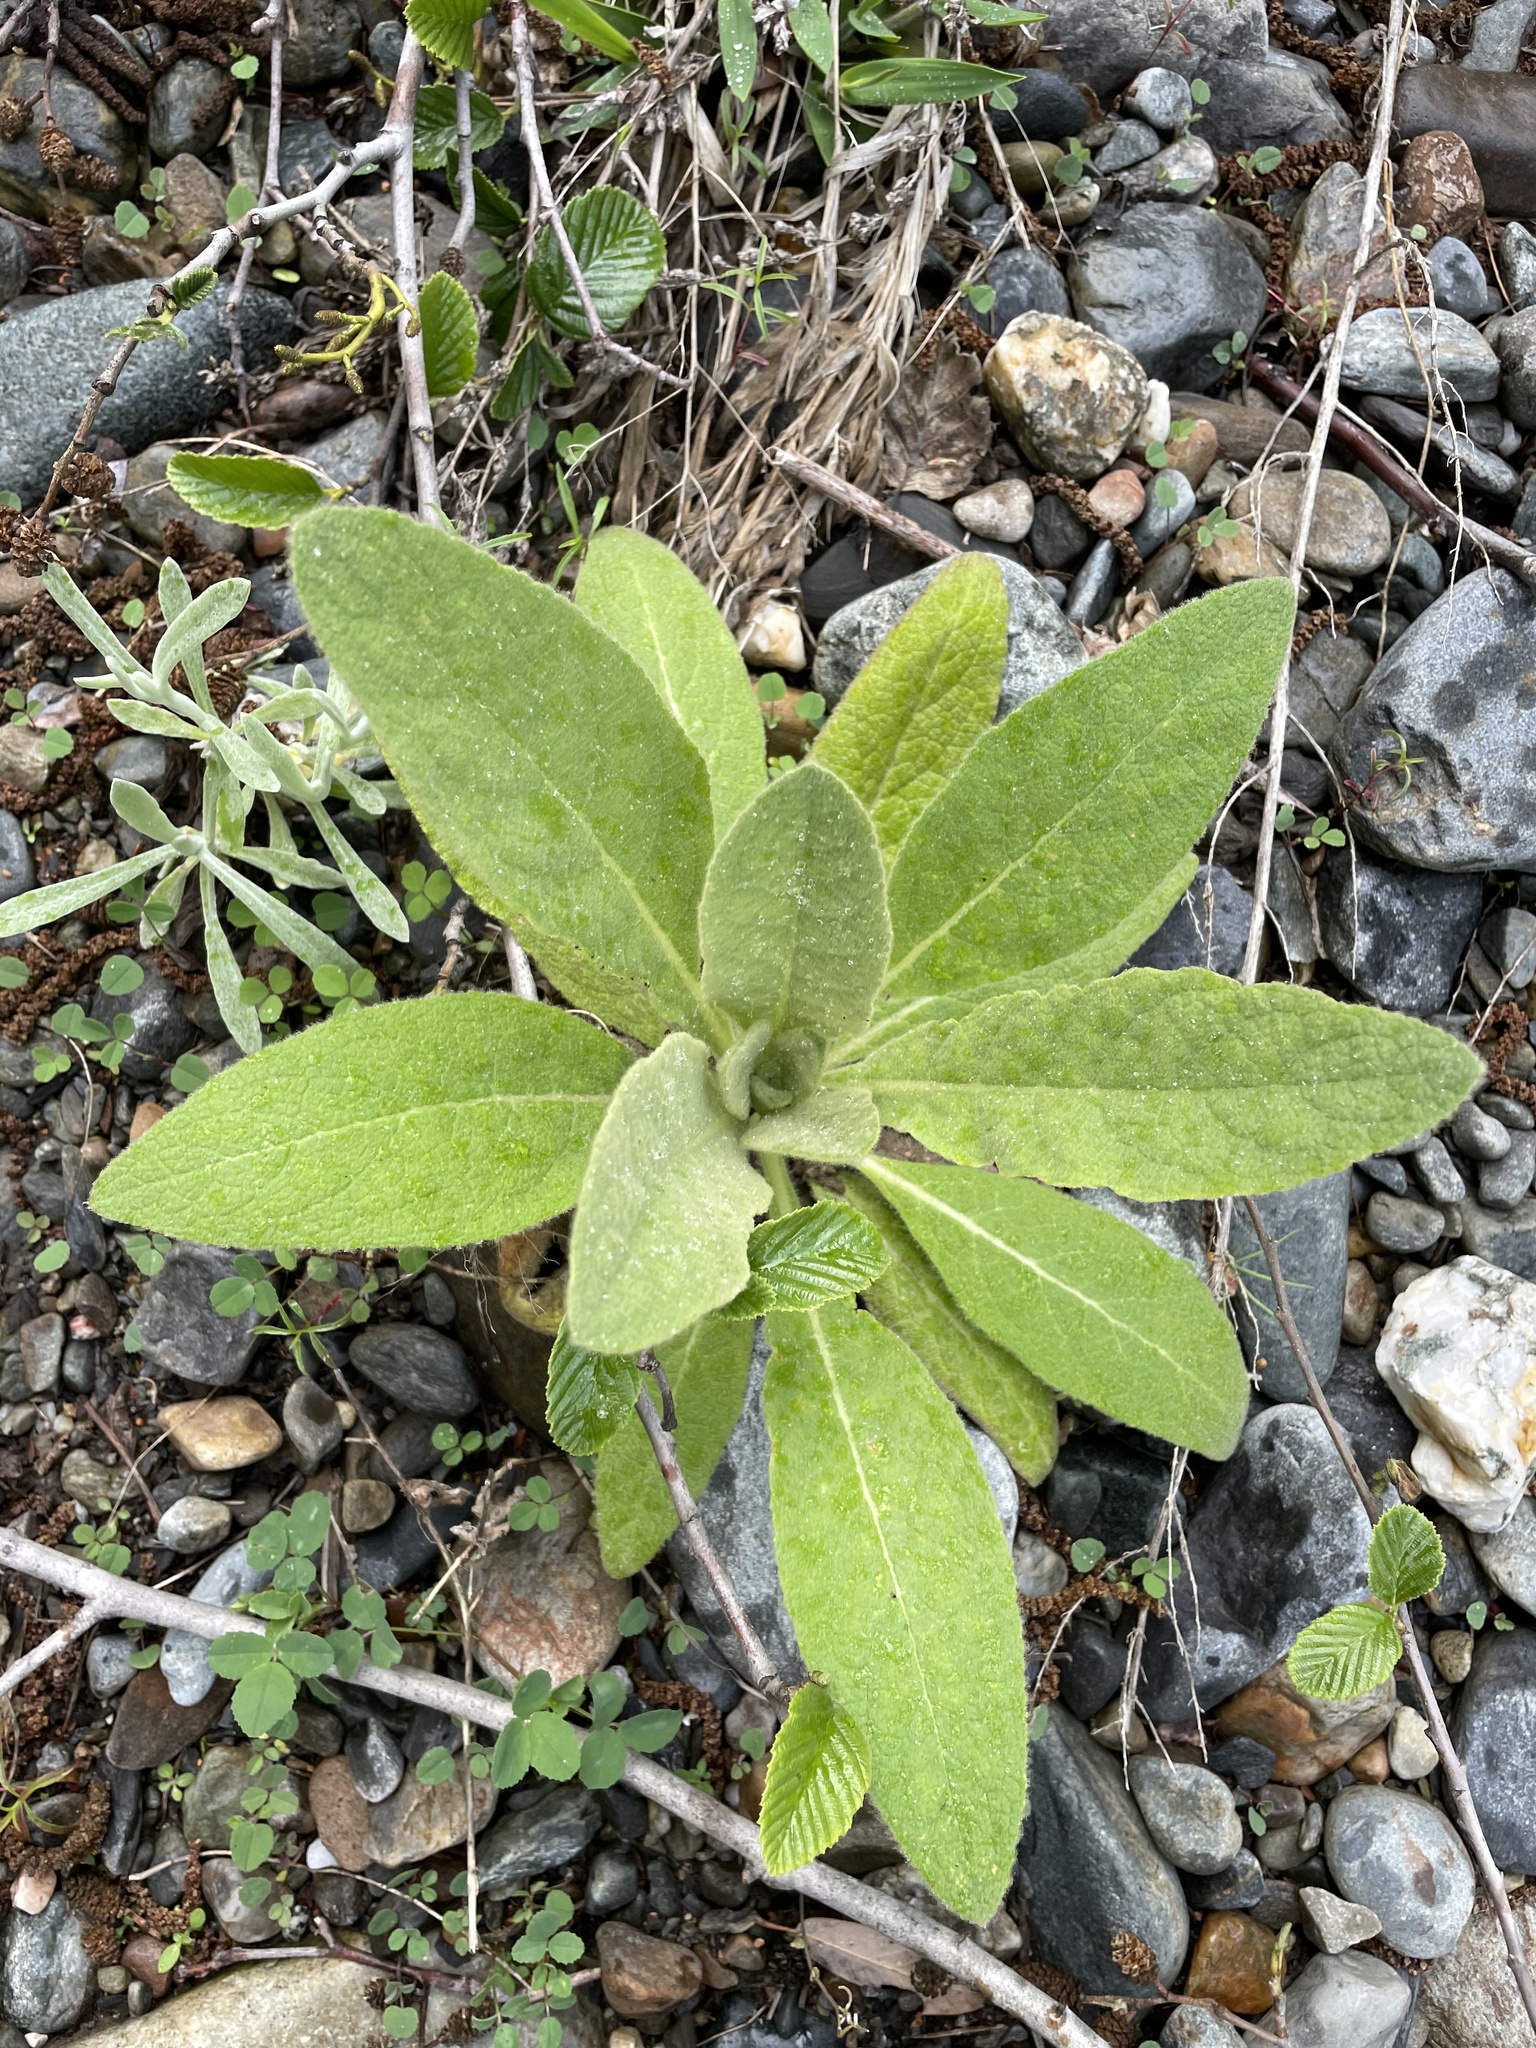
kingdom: Plantae
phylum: Tracheophyta
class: Magnoliopsida
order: Lamiales
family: Scrophulariaceae
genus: Verbascum
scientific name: Verbascum thapsus
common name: Common mullein
